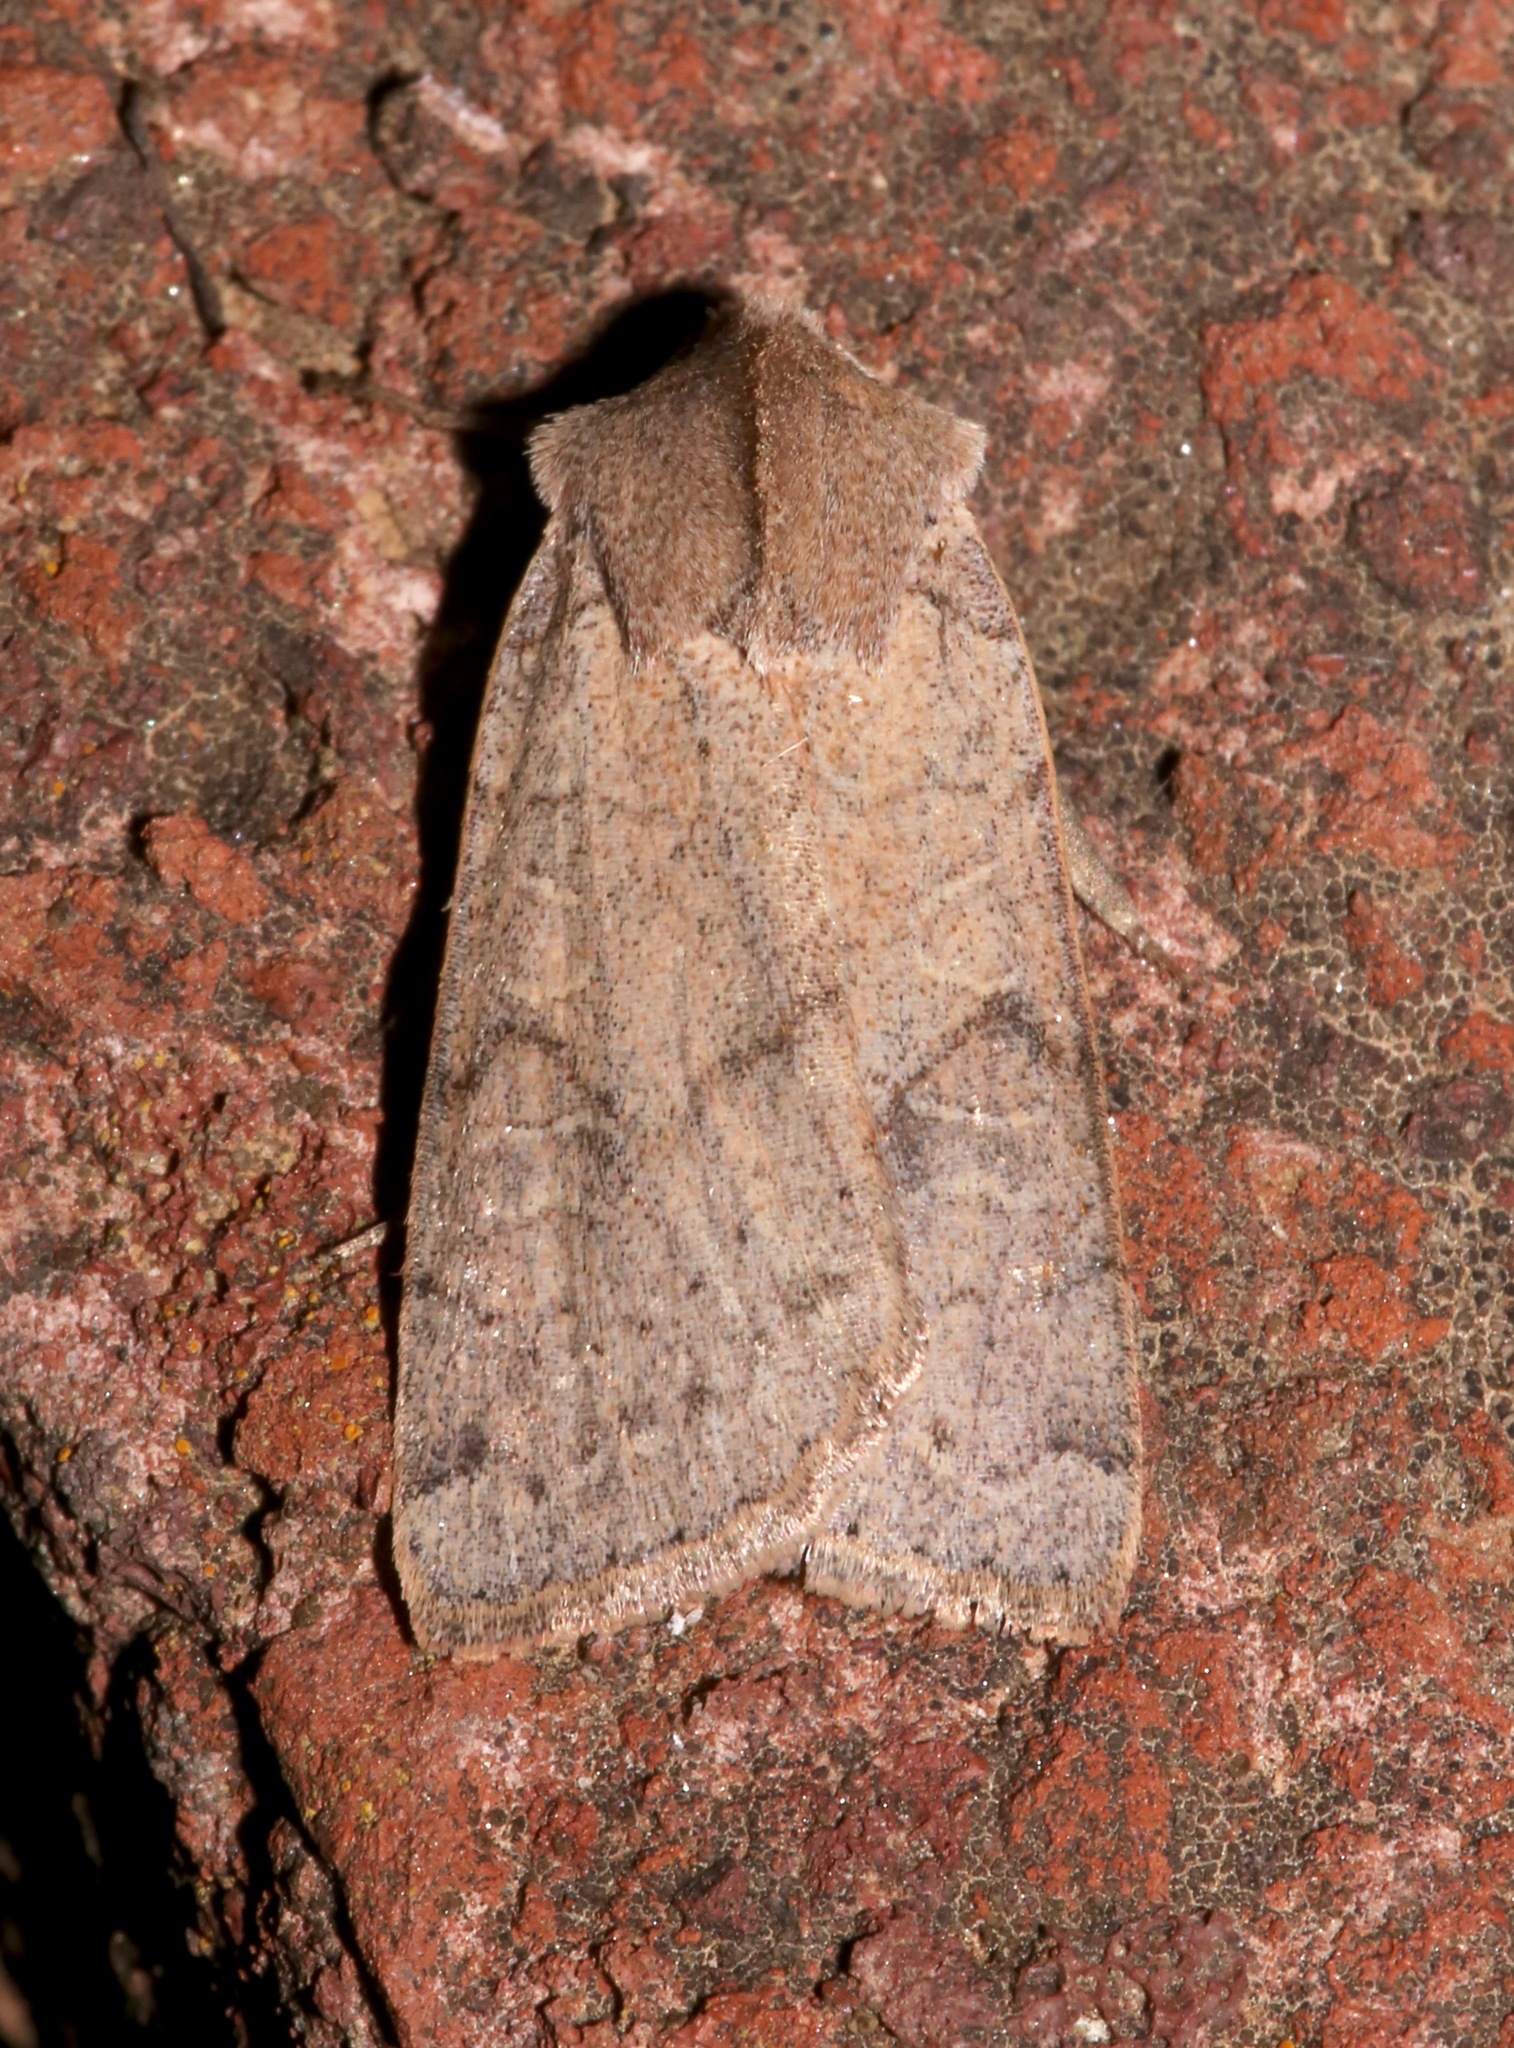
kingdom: Animalia
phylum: Arthropoda
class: Insecta
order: Lepidoptera
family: Noctuidae
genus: Richia
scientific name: Richia chortalis
